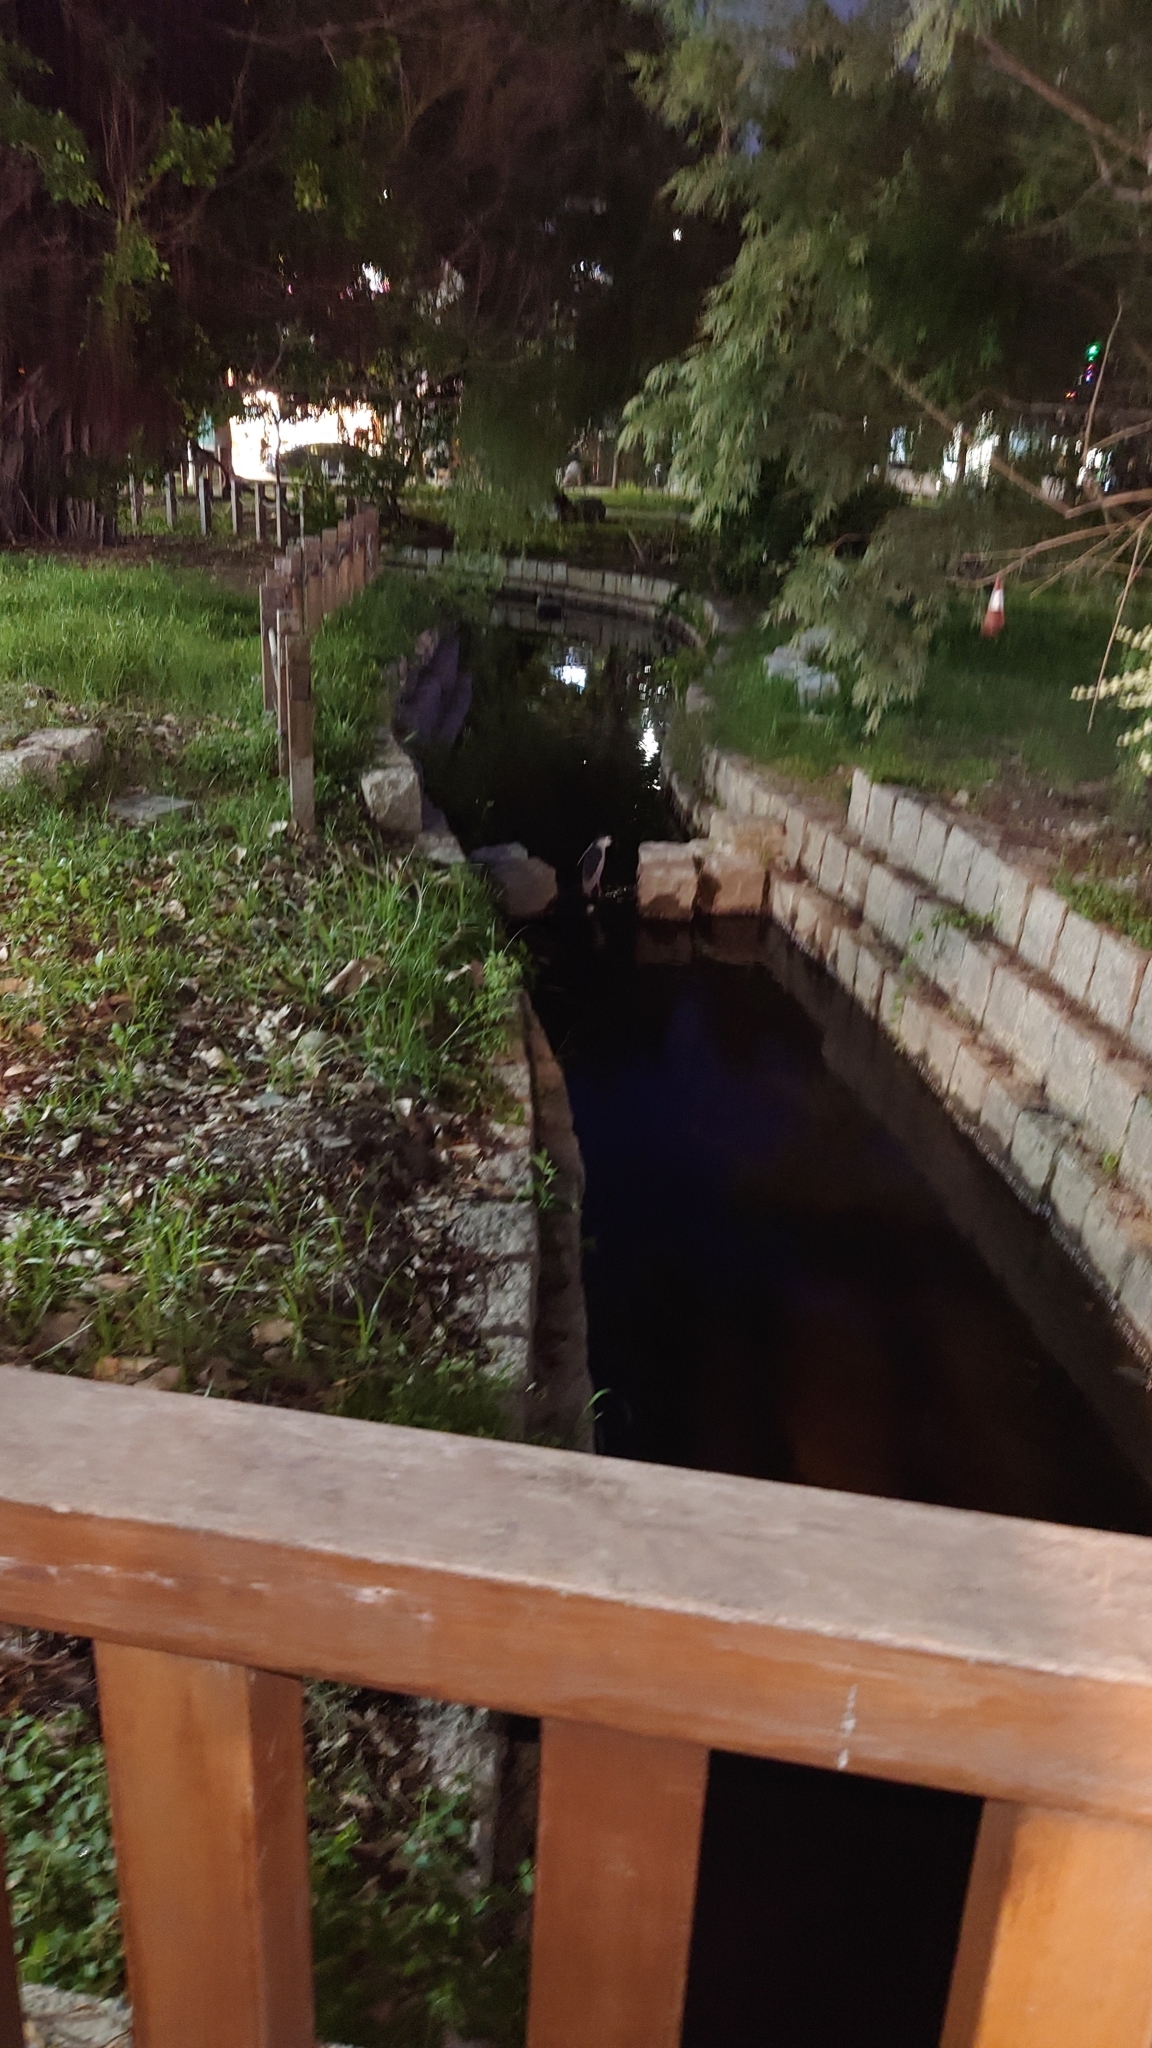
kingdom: Animalia
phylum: Chordata
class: Aves
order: Pelecaniformes
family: Ardeidae
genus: Nycticorax
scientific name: Nycticorax nycticorax
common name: Black-crowned night heron
